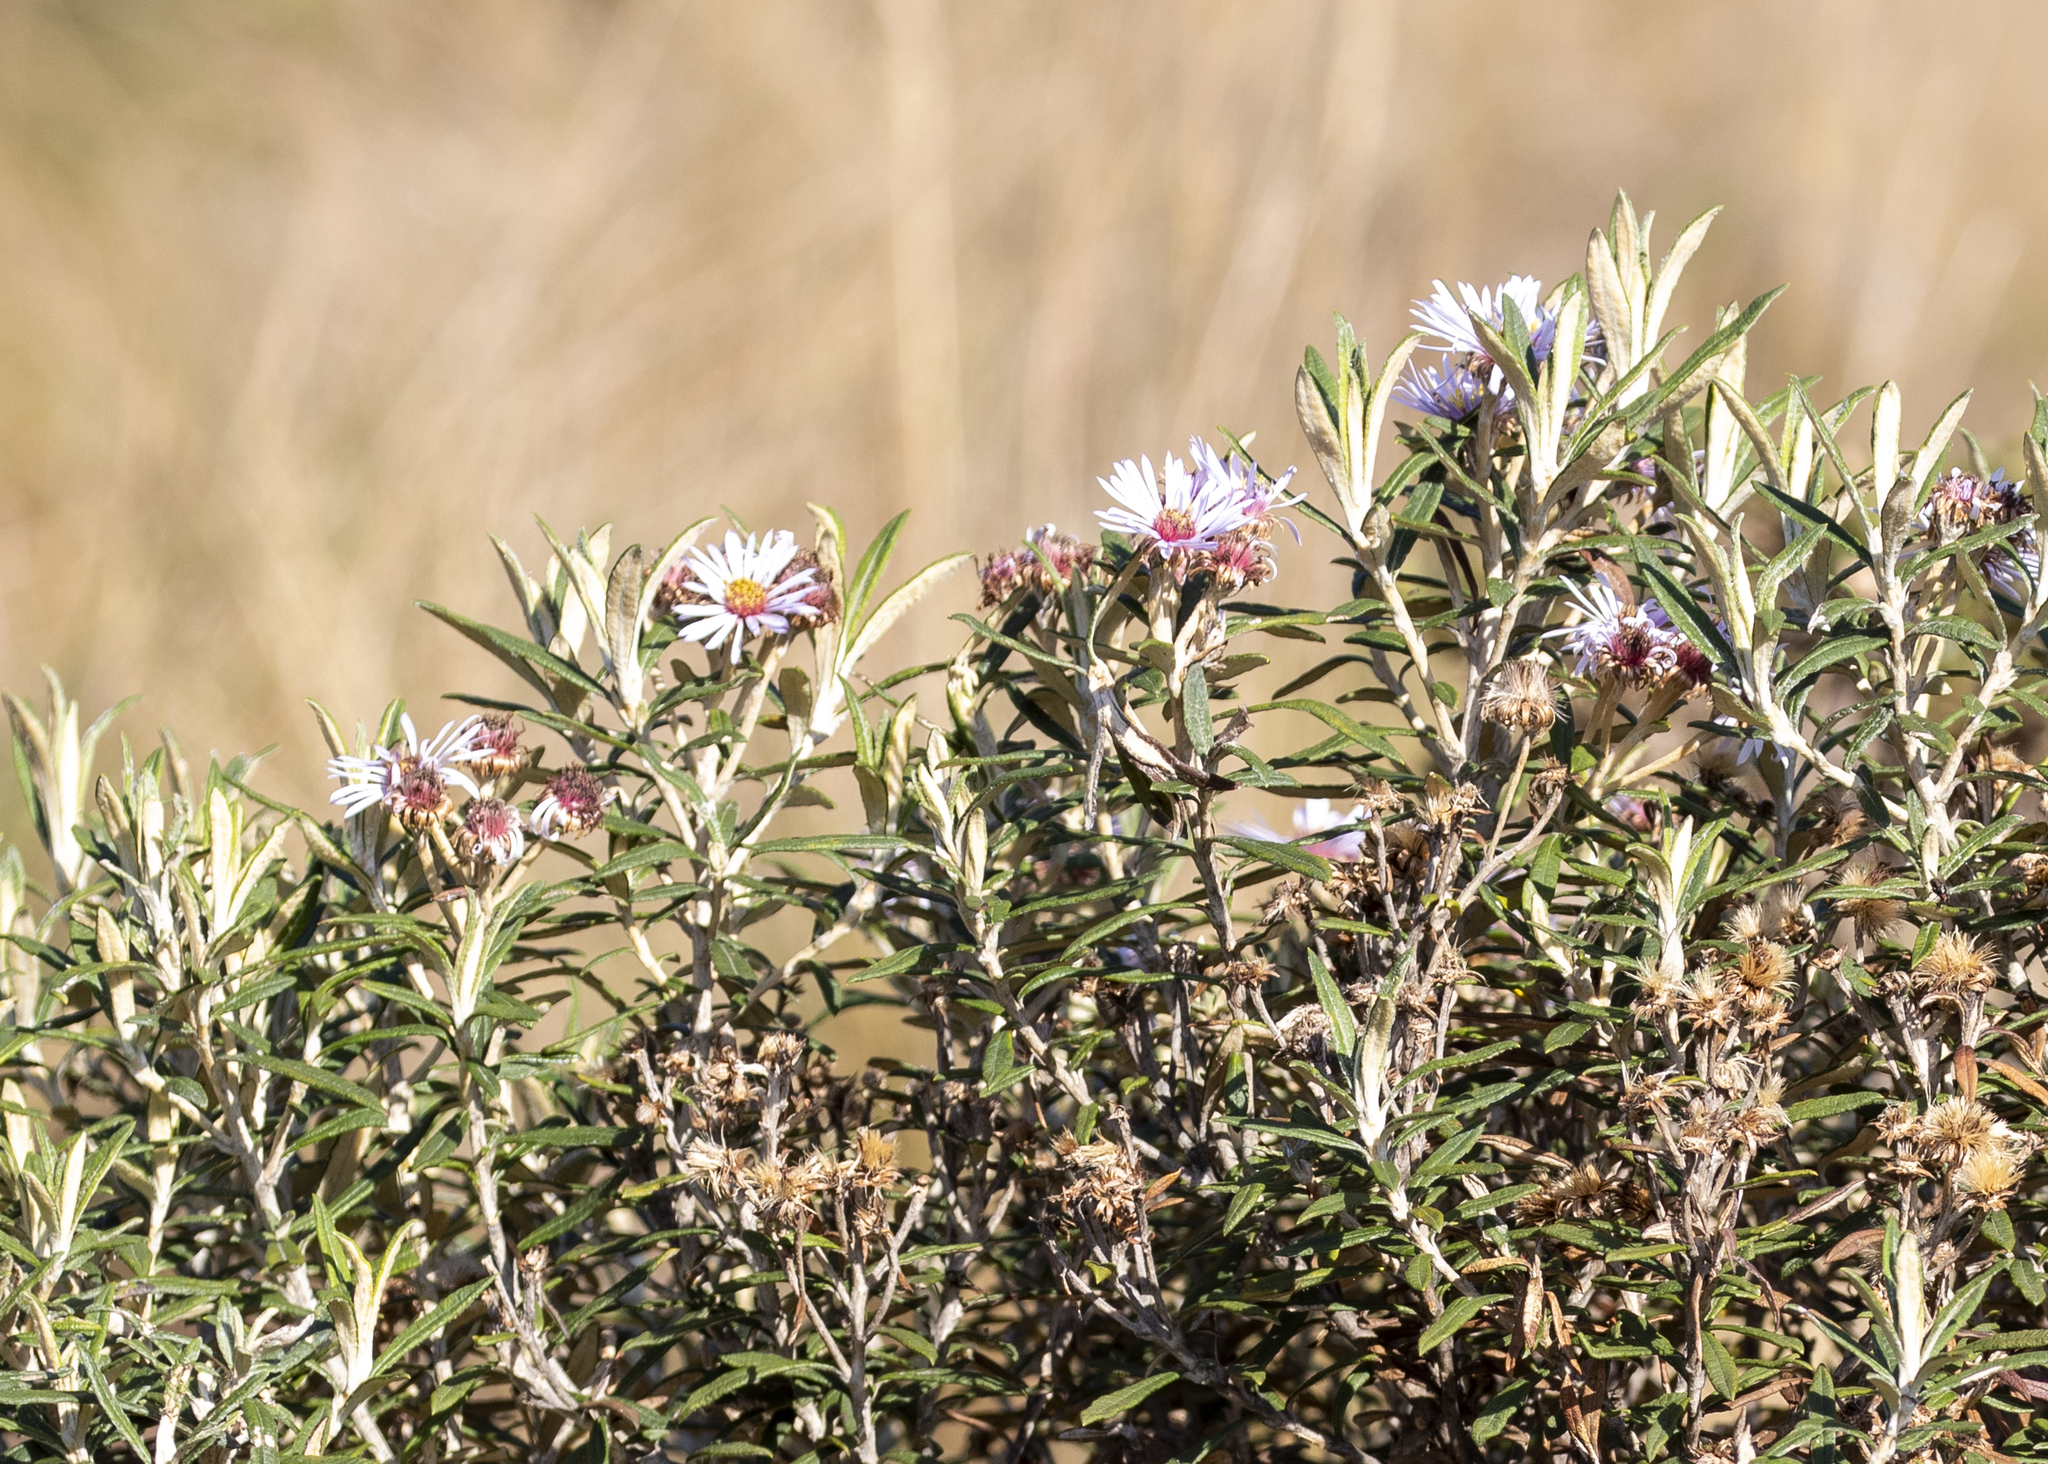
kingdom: Plantae
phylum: Tracheophyta
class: Magnoliopsida
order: Asterales
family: Asteraceae
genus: Diplostephium
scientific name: Diplostephium haenkei
